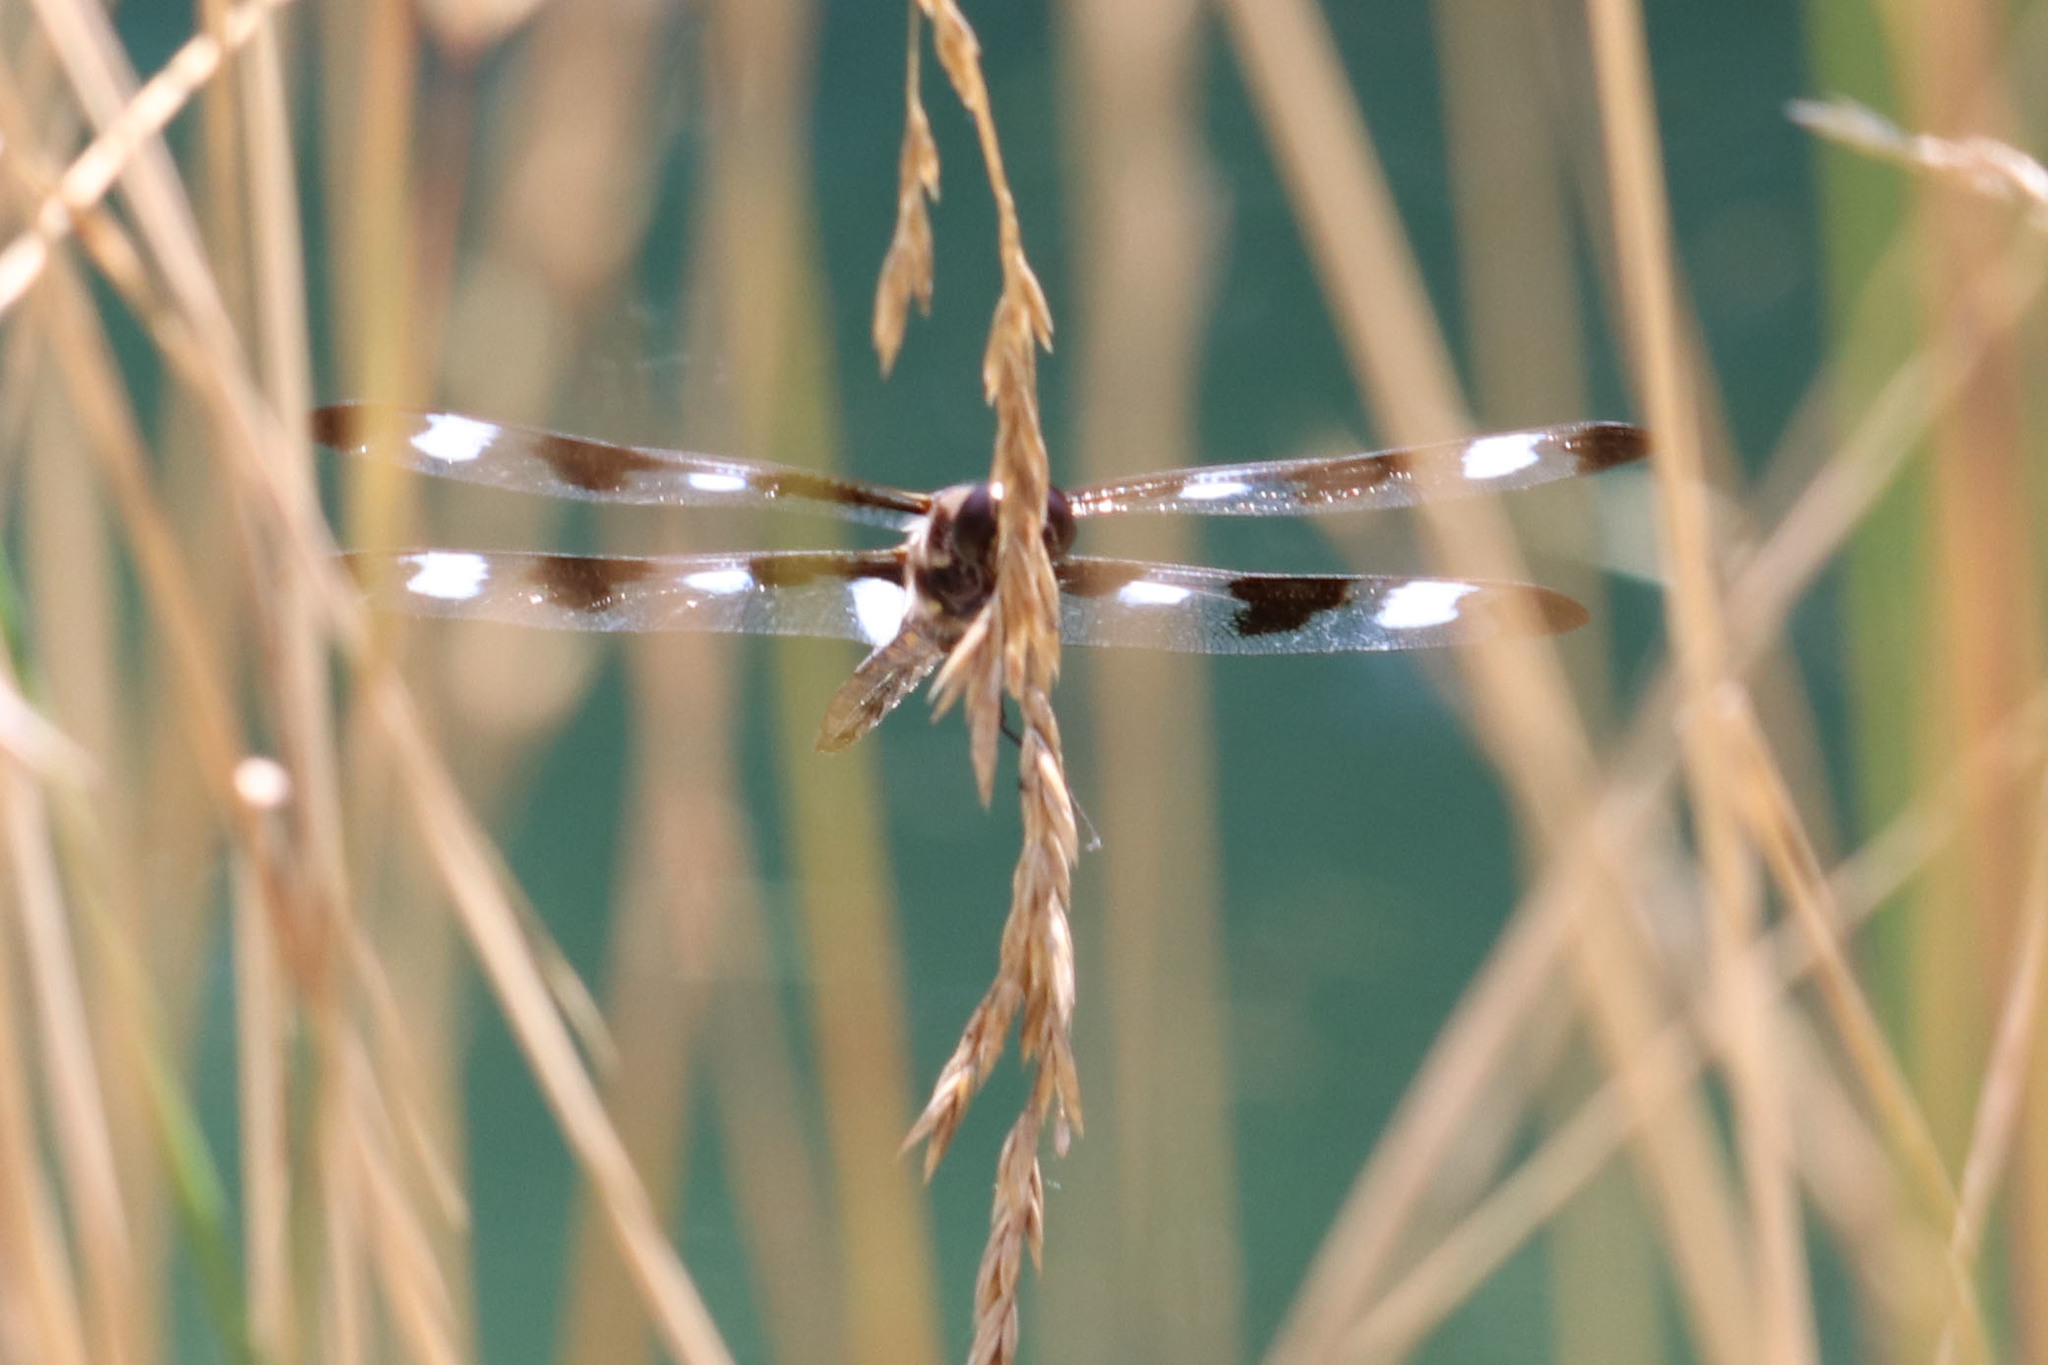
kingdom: Animalia
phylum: Arthropoda
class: Insecta
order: Odonata
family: Libellulidae
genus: Libellula
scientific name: Libellula pulchella
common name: Twelve-spotted skimmer
